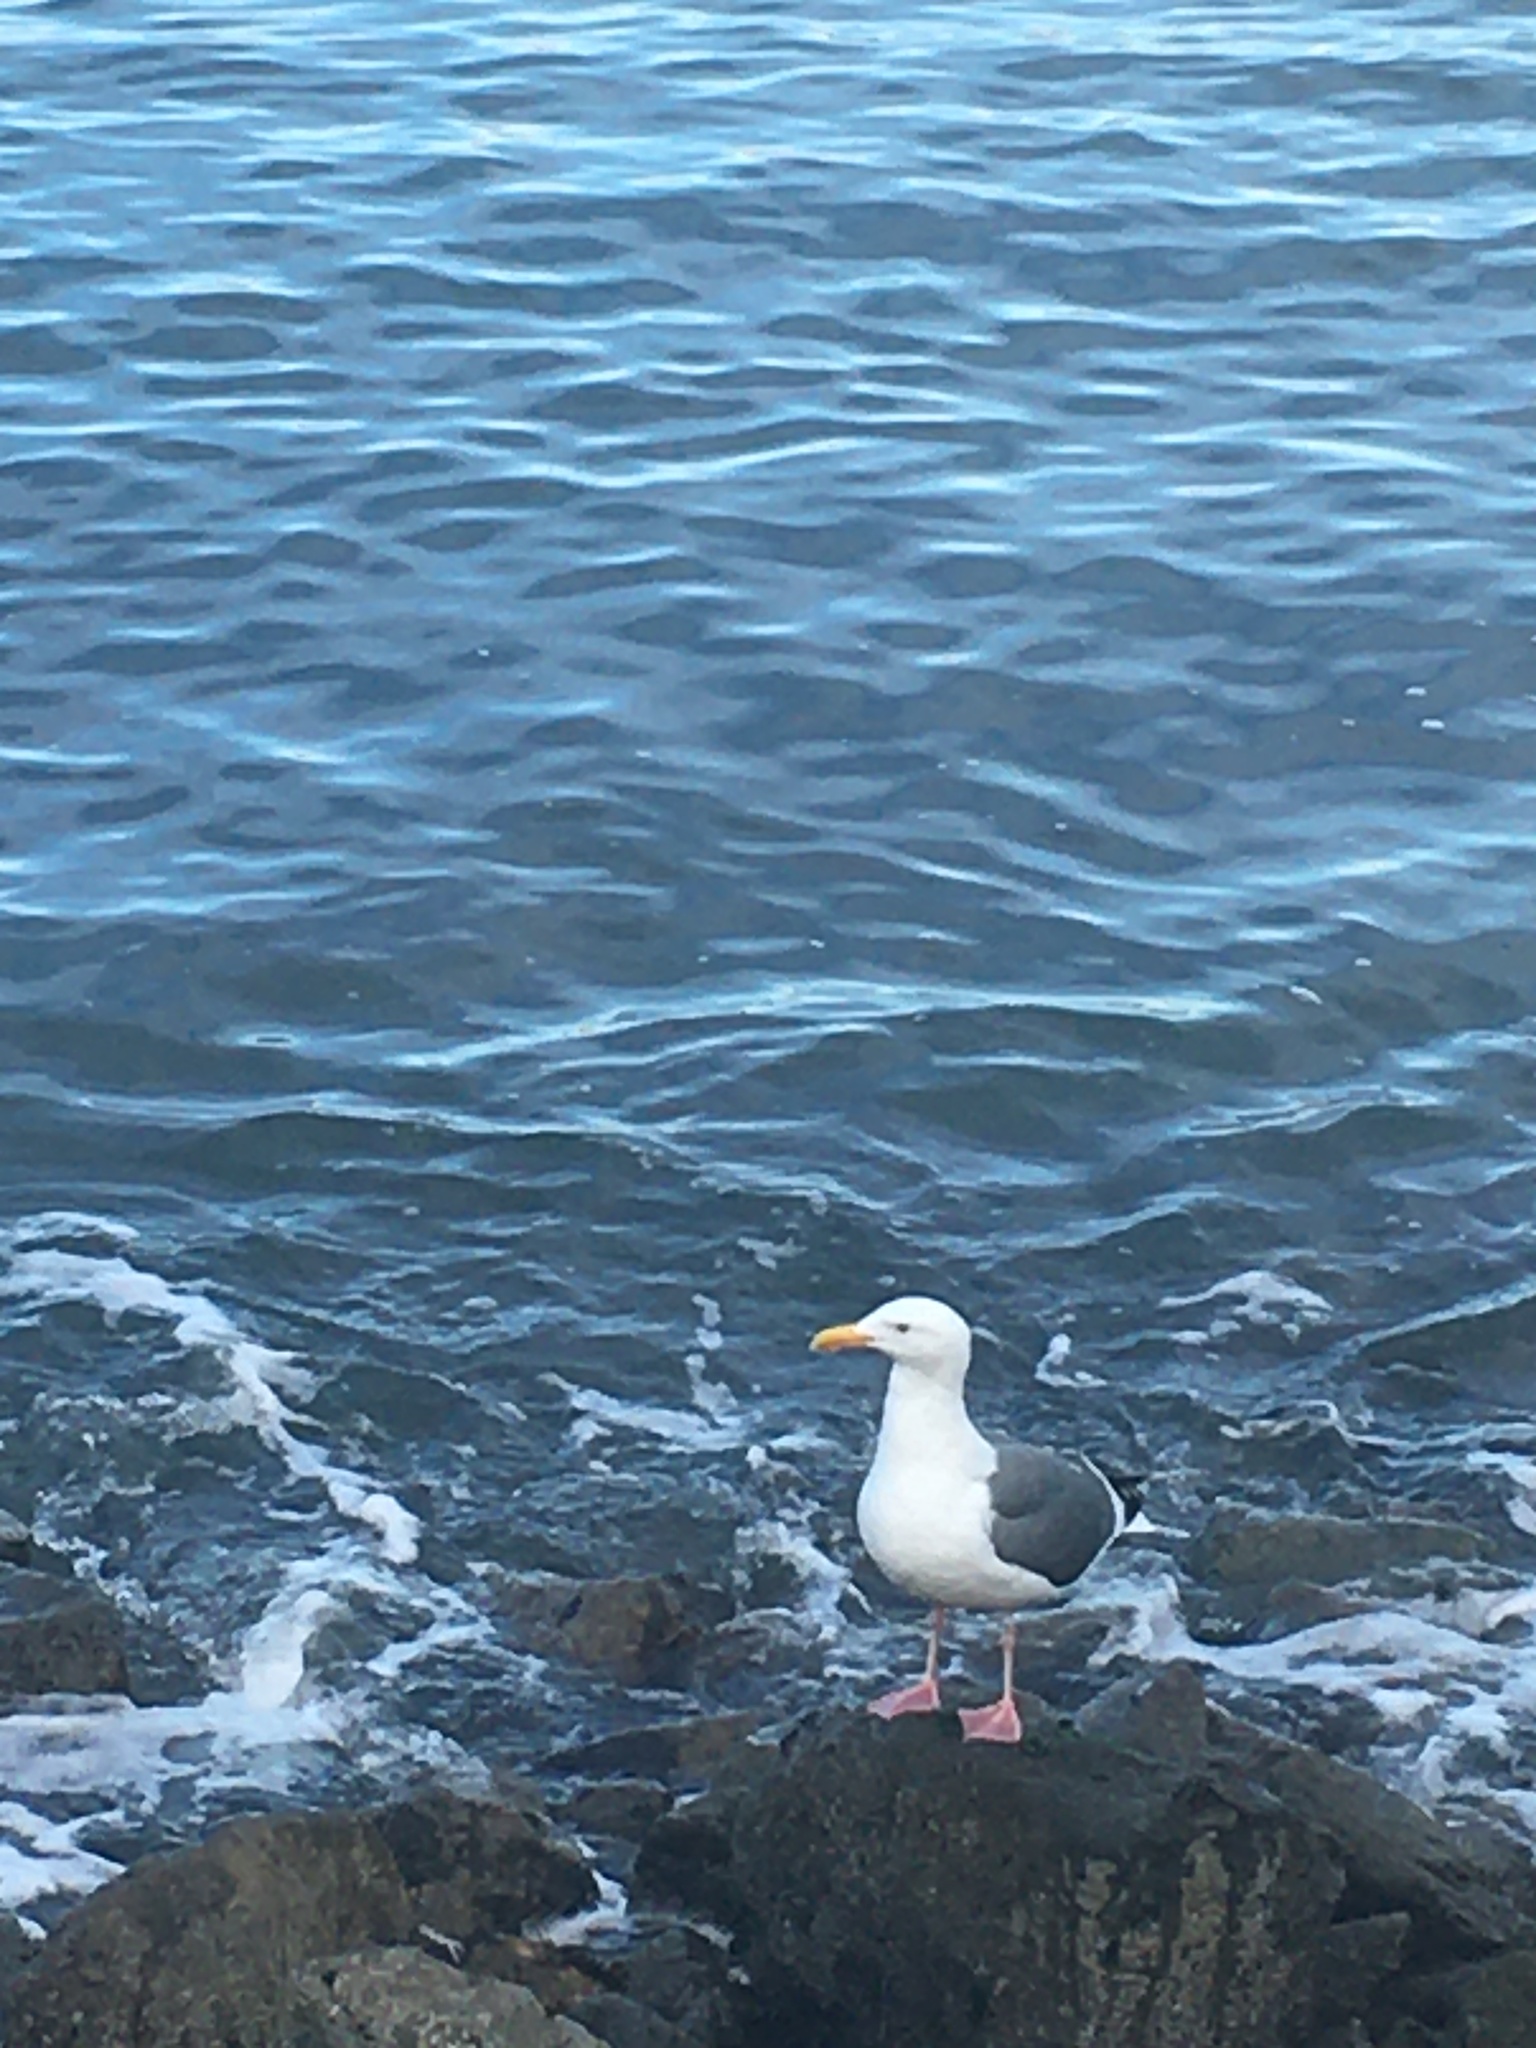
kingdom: Animalia
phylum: Chordata
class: Aves
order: Charadriiformes
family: Laridae
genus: Larus
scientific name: Larus occidentalis
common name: Western gull
